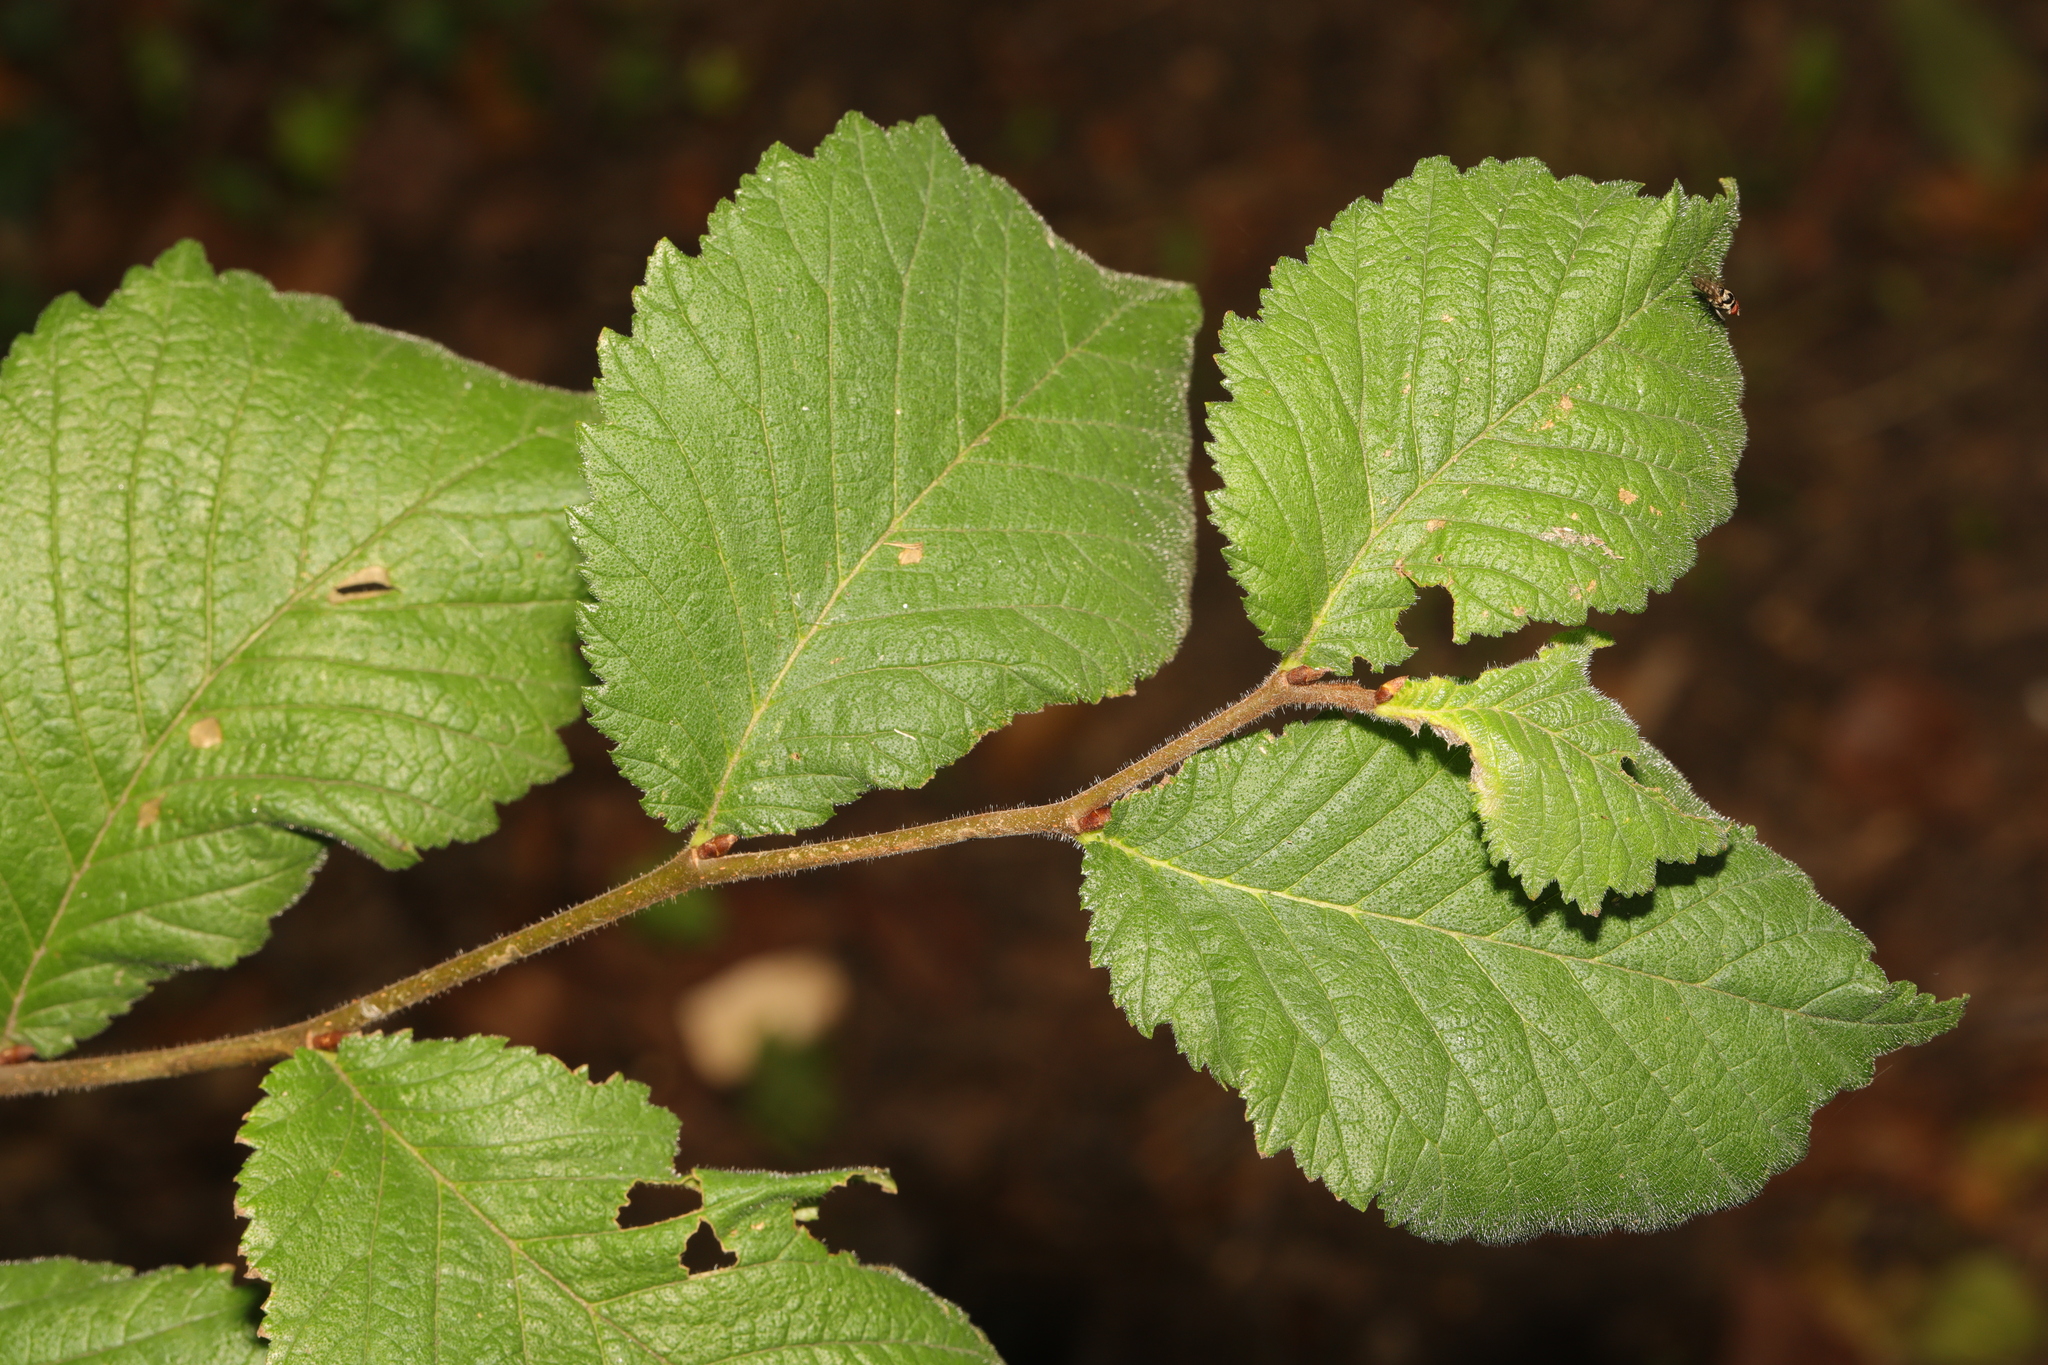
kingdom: Plantae
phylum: Tracheophyta
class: Magnoliopsida
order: Rosales
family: Ulmaceae
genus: Ulmus
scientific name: Ulmus glabra
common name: Wych elm
